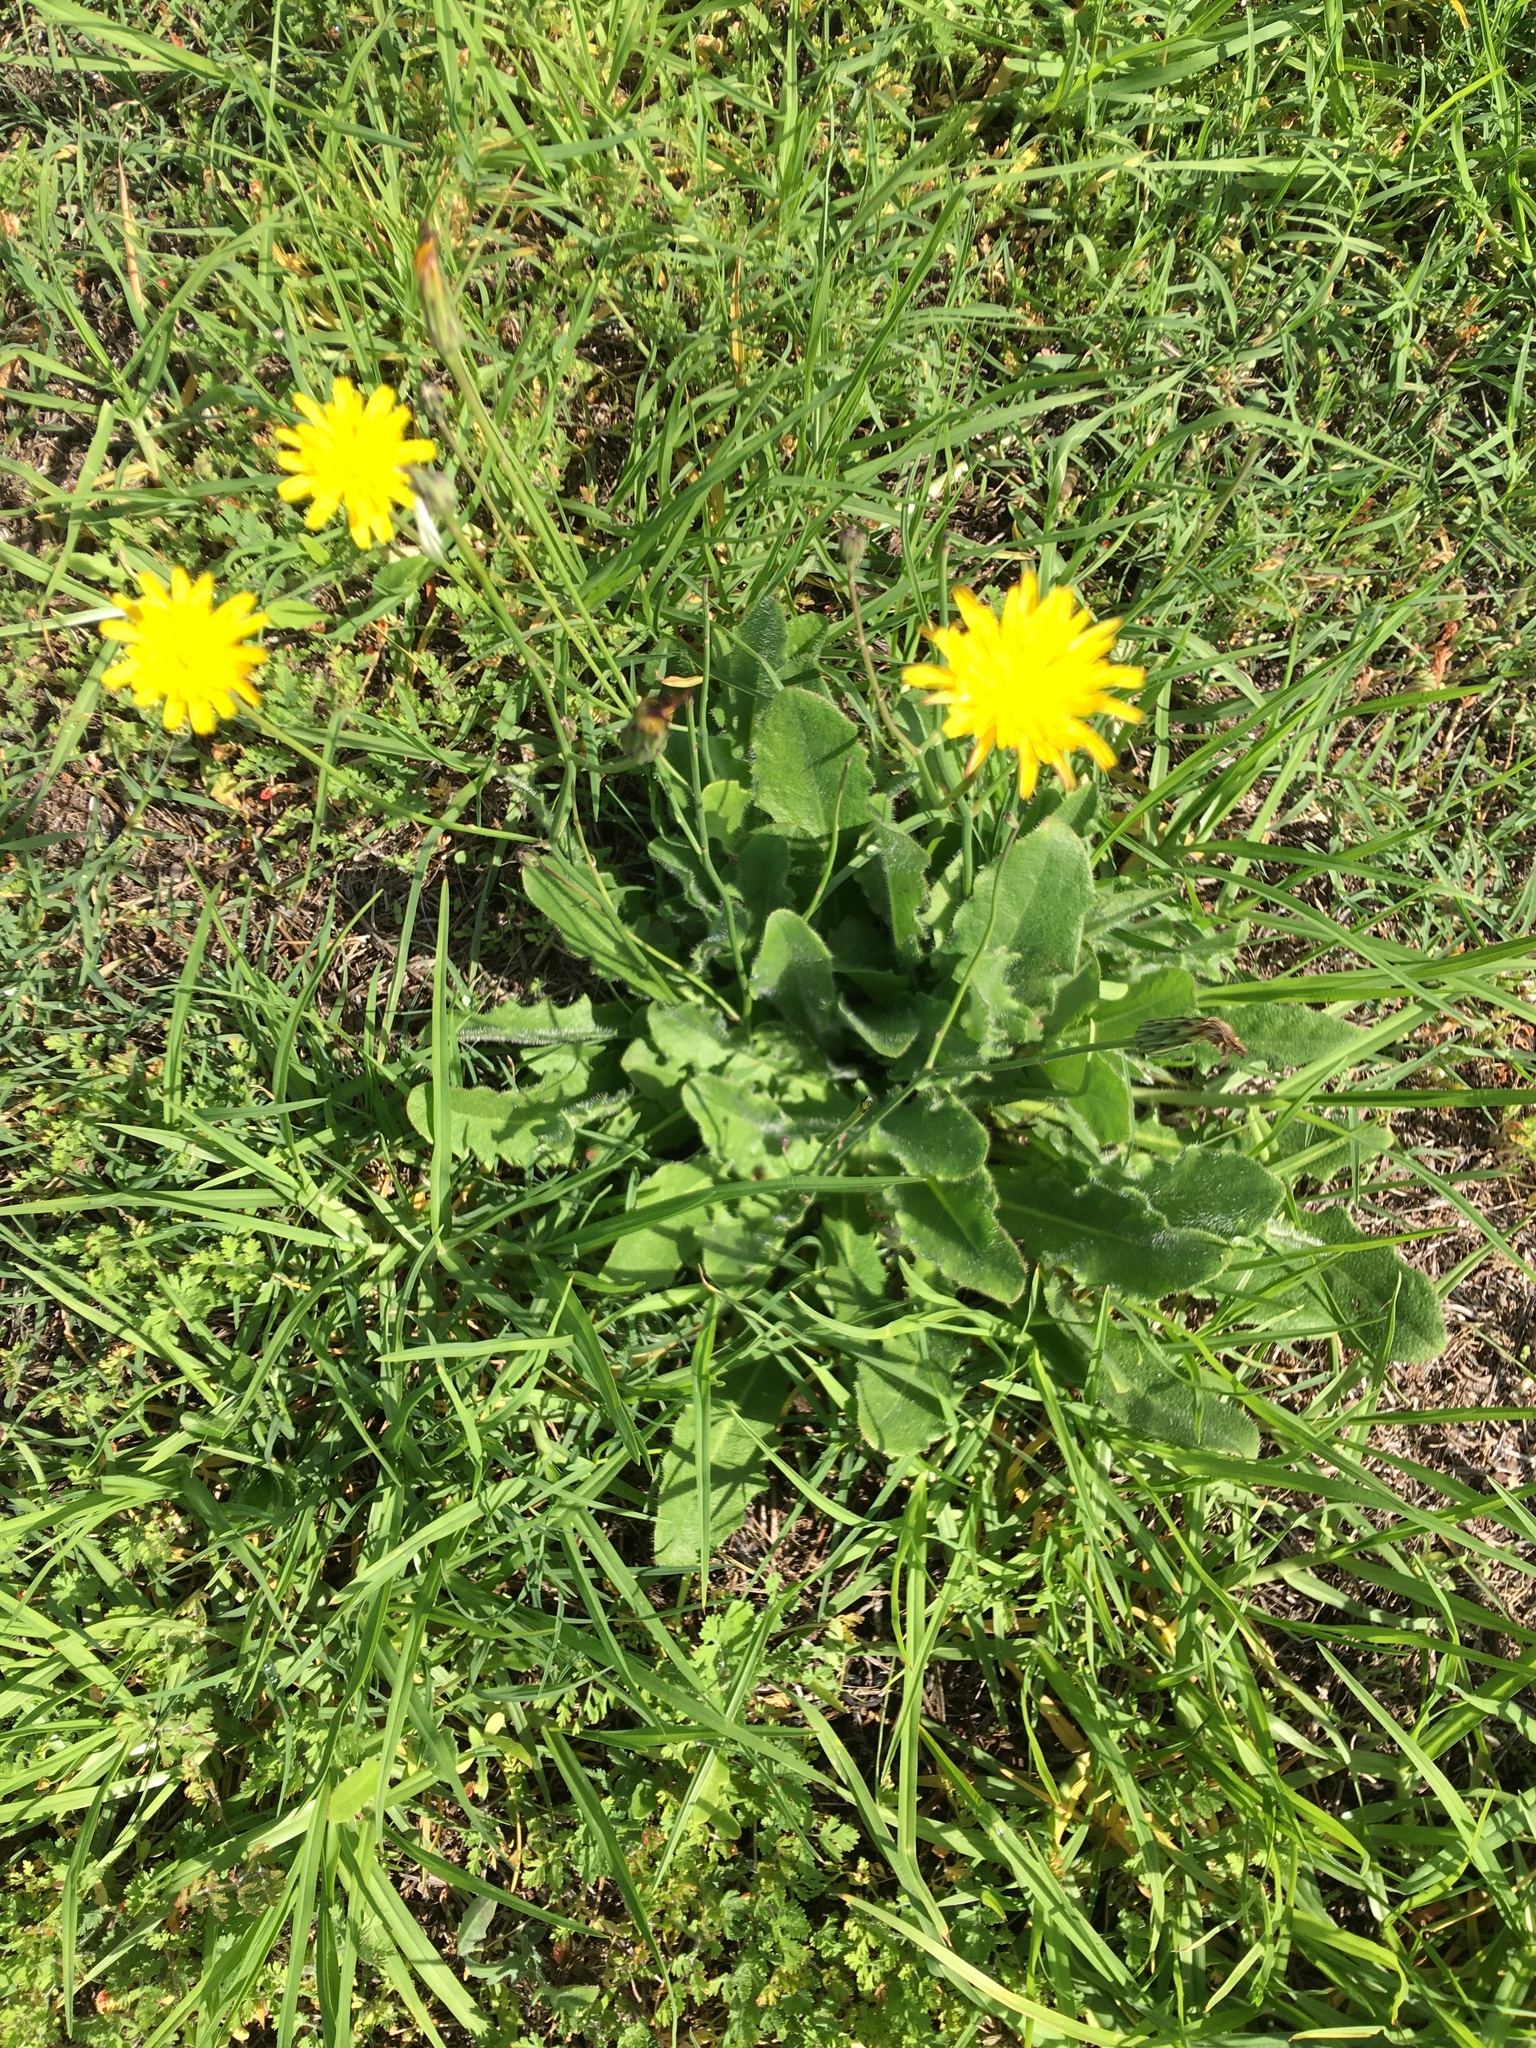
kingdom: Plantae
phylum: Tracheophyta
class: Magnoliopsida
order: Asterales
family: Asteraceae
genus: Hypochaeris
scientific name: Hypochaeris radicata
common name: Flatweed
